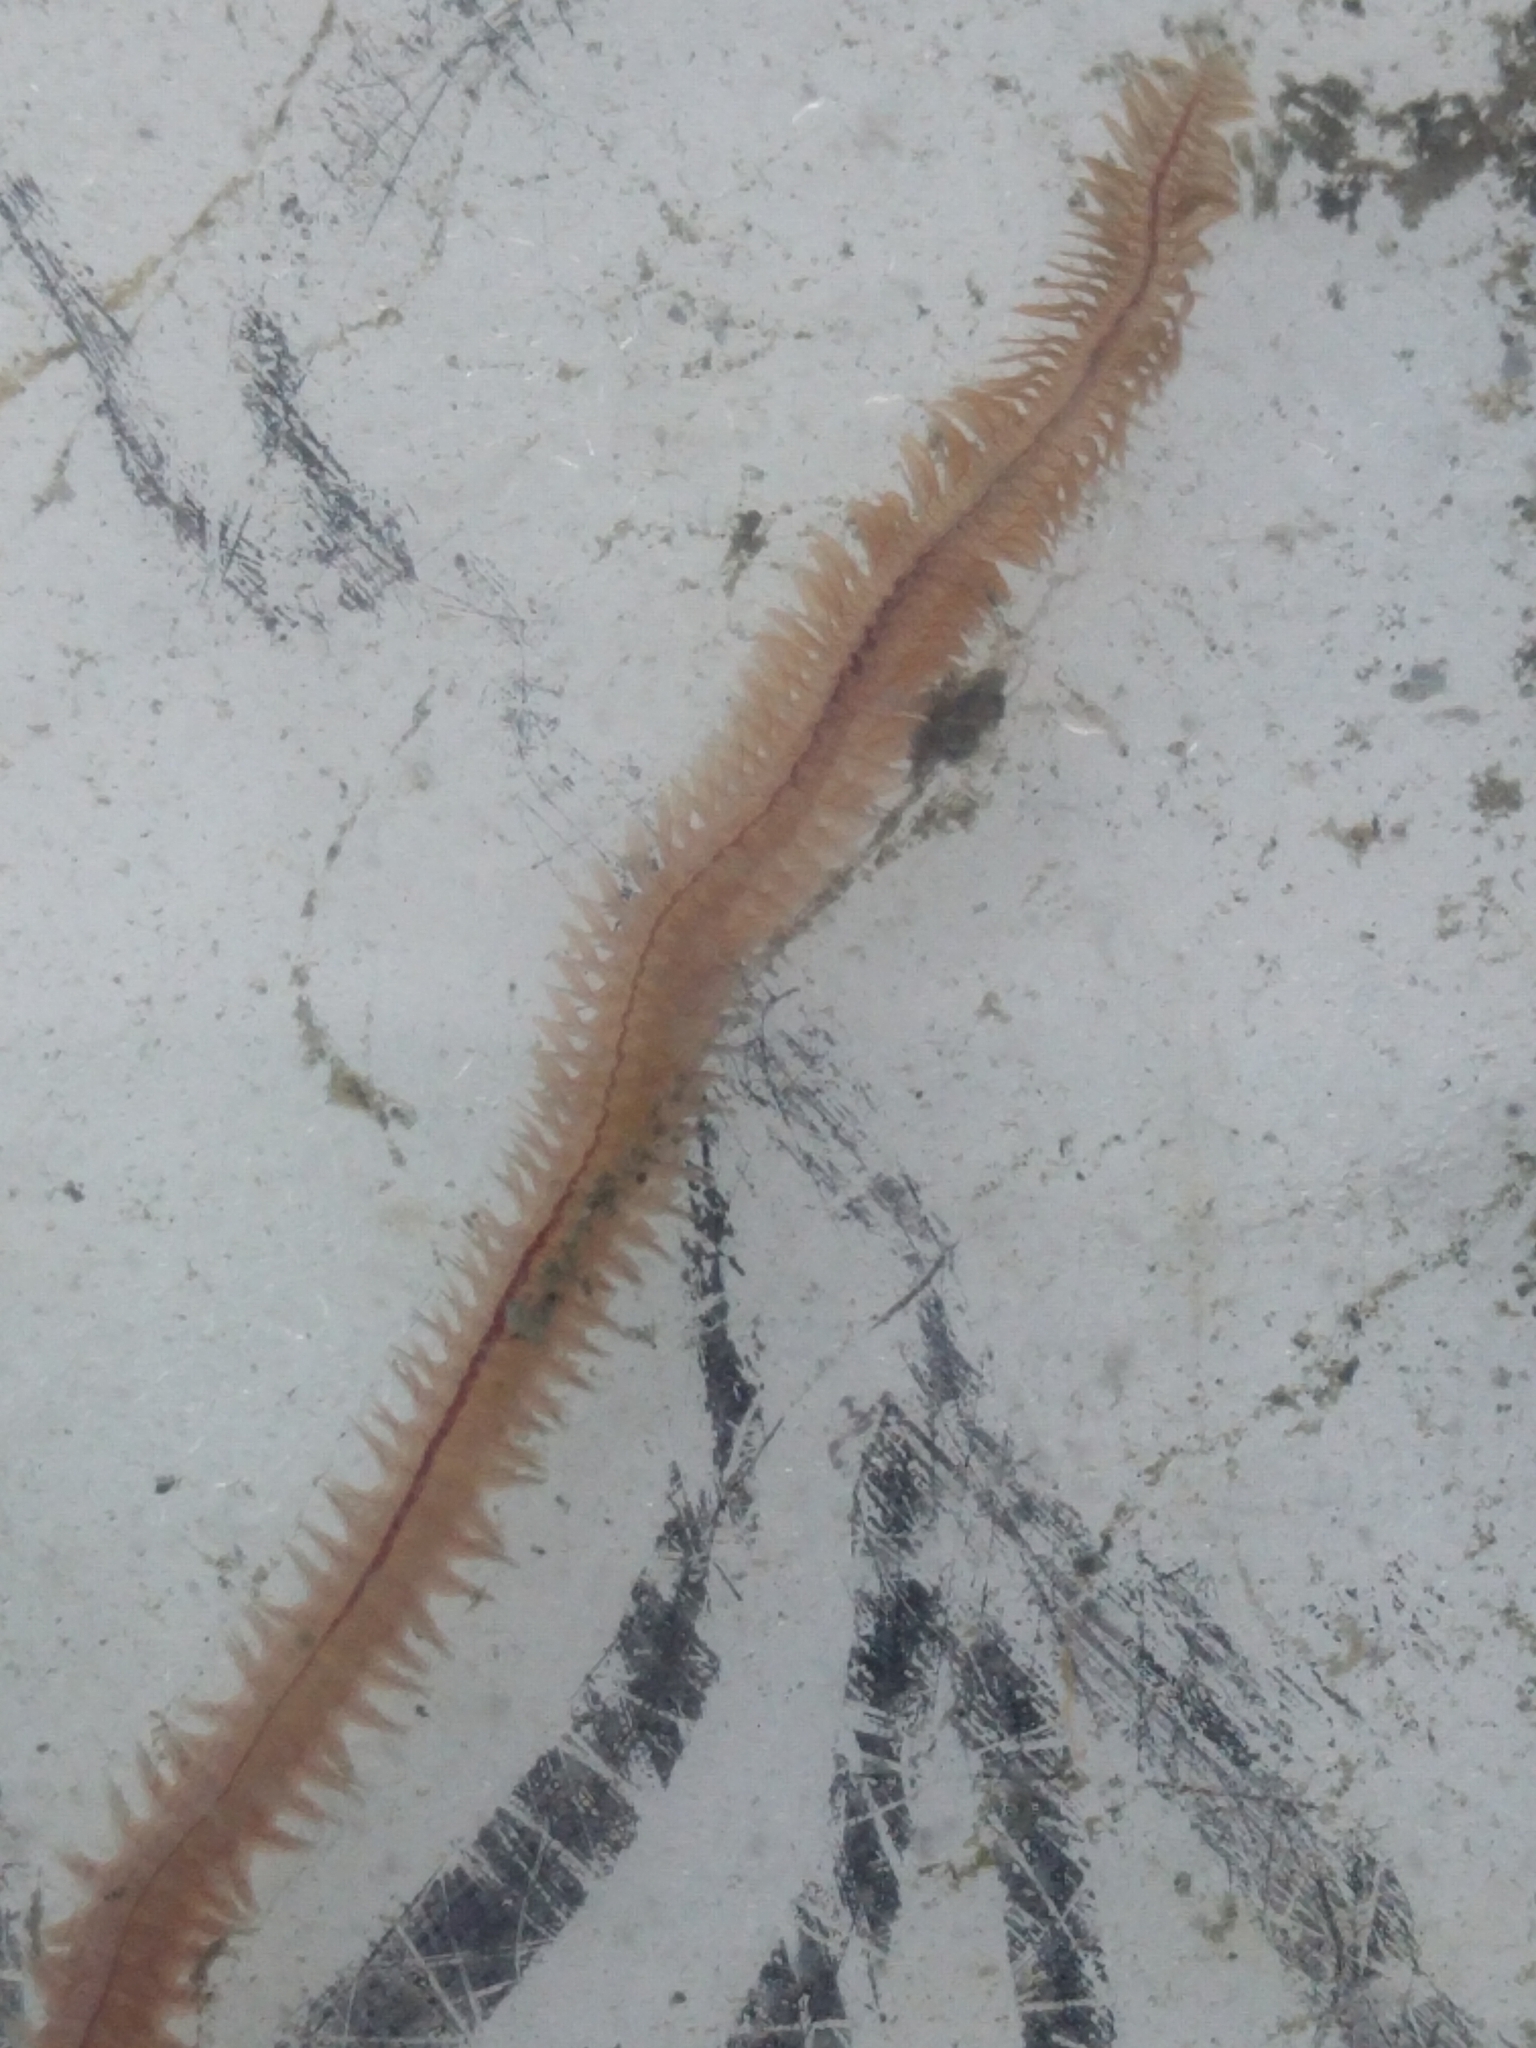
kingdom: Animalia
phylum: Annelida
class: Polychaeta
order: Phyllodocida
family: Nereididae
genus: Alitta
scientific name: Alitta succinea
